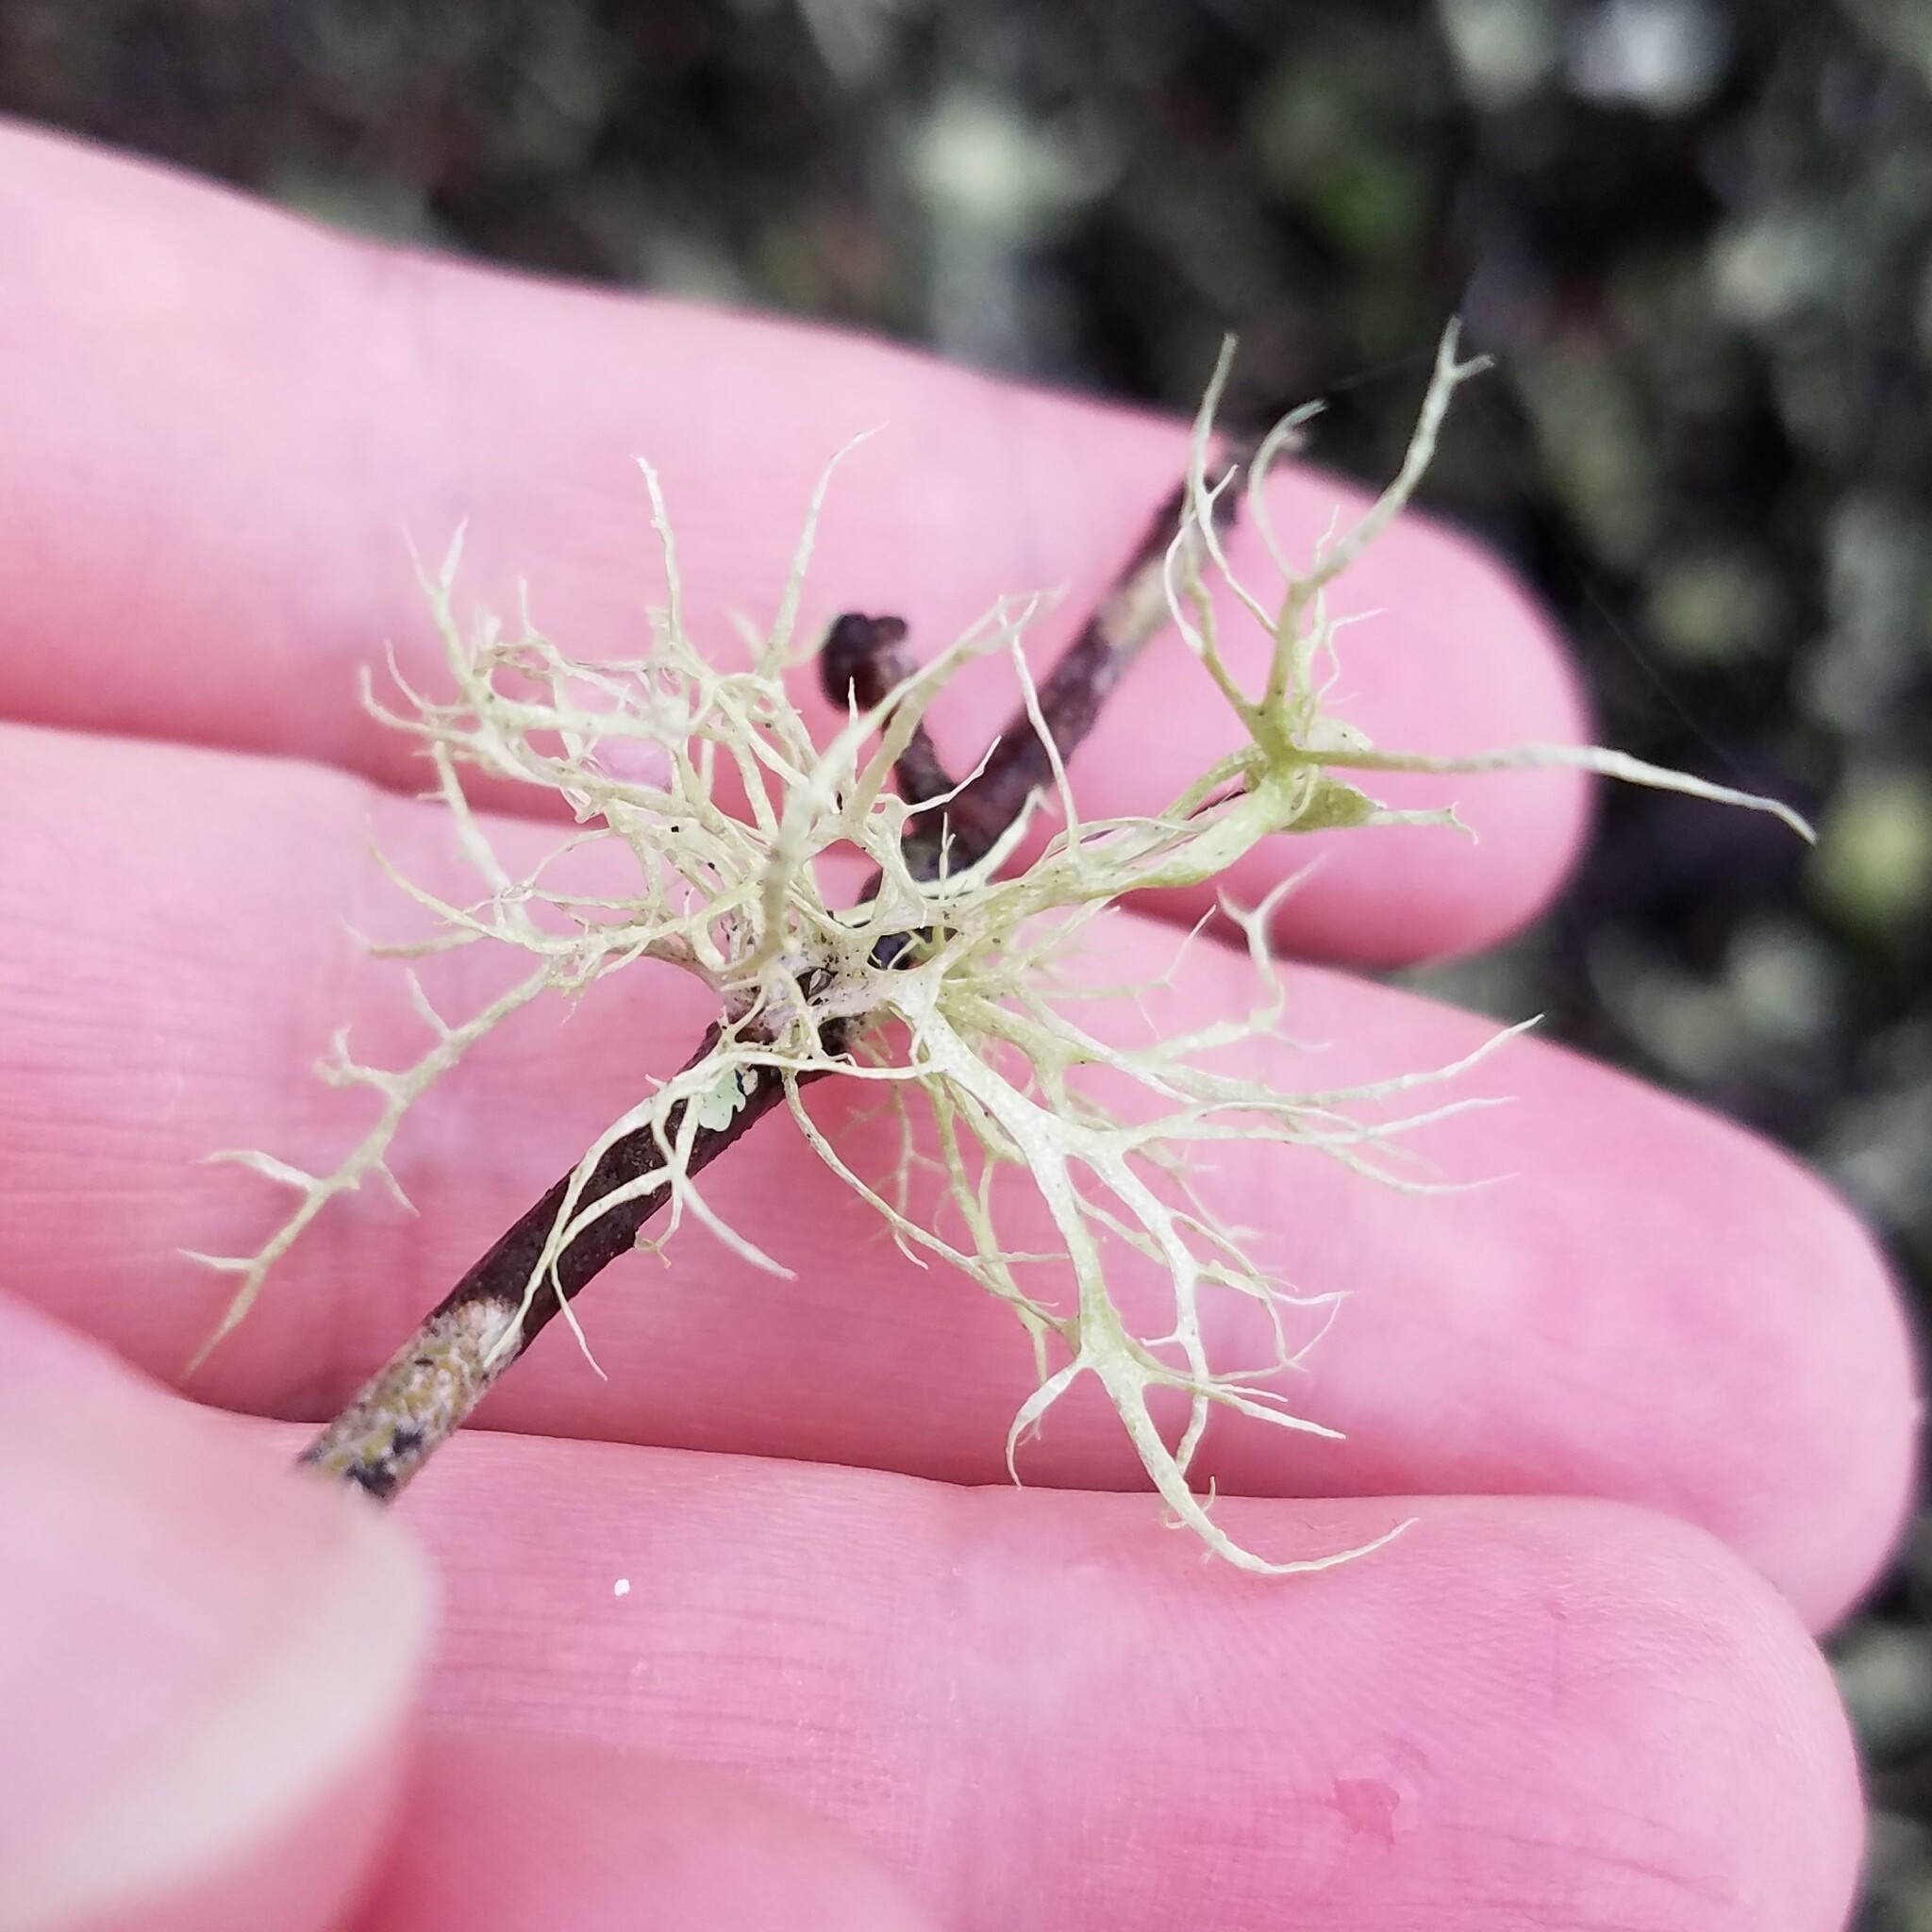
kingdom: Fungi
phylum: Ascomycota
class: Lecanoromycetes
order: Lecanorales
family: Ramalinaceae
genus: Ramalina
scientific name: Ramalina
